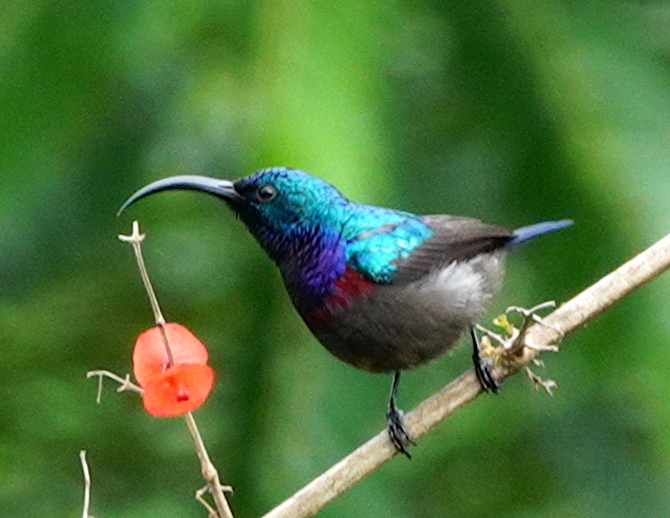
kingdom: Animalia
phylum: Chordata
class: Aves
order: Passeriformes
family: Nectariniidae
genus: Cinnyris
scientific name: Cinnyris lotenius
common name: Loten's sunbird
